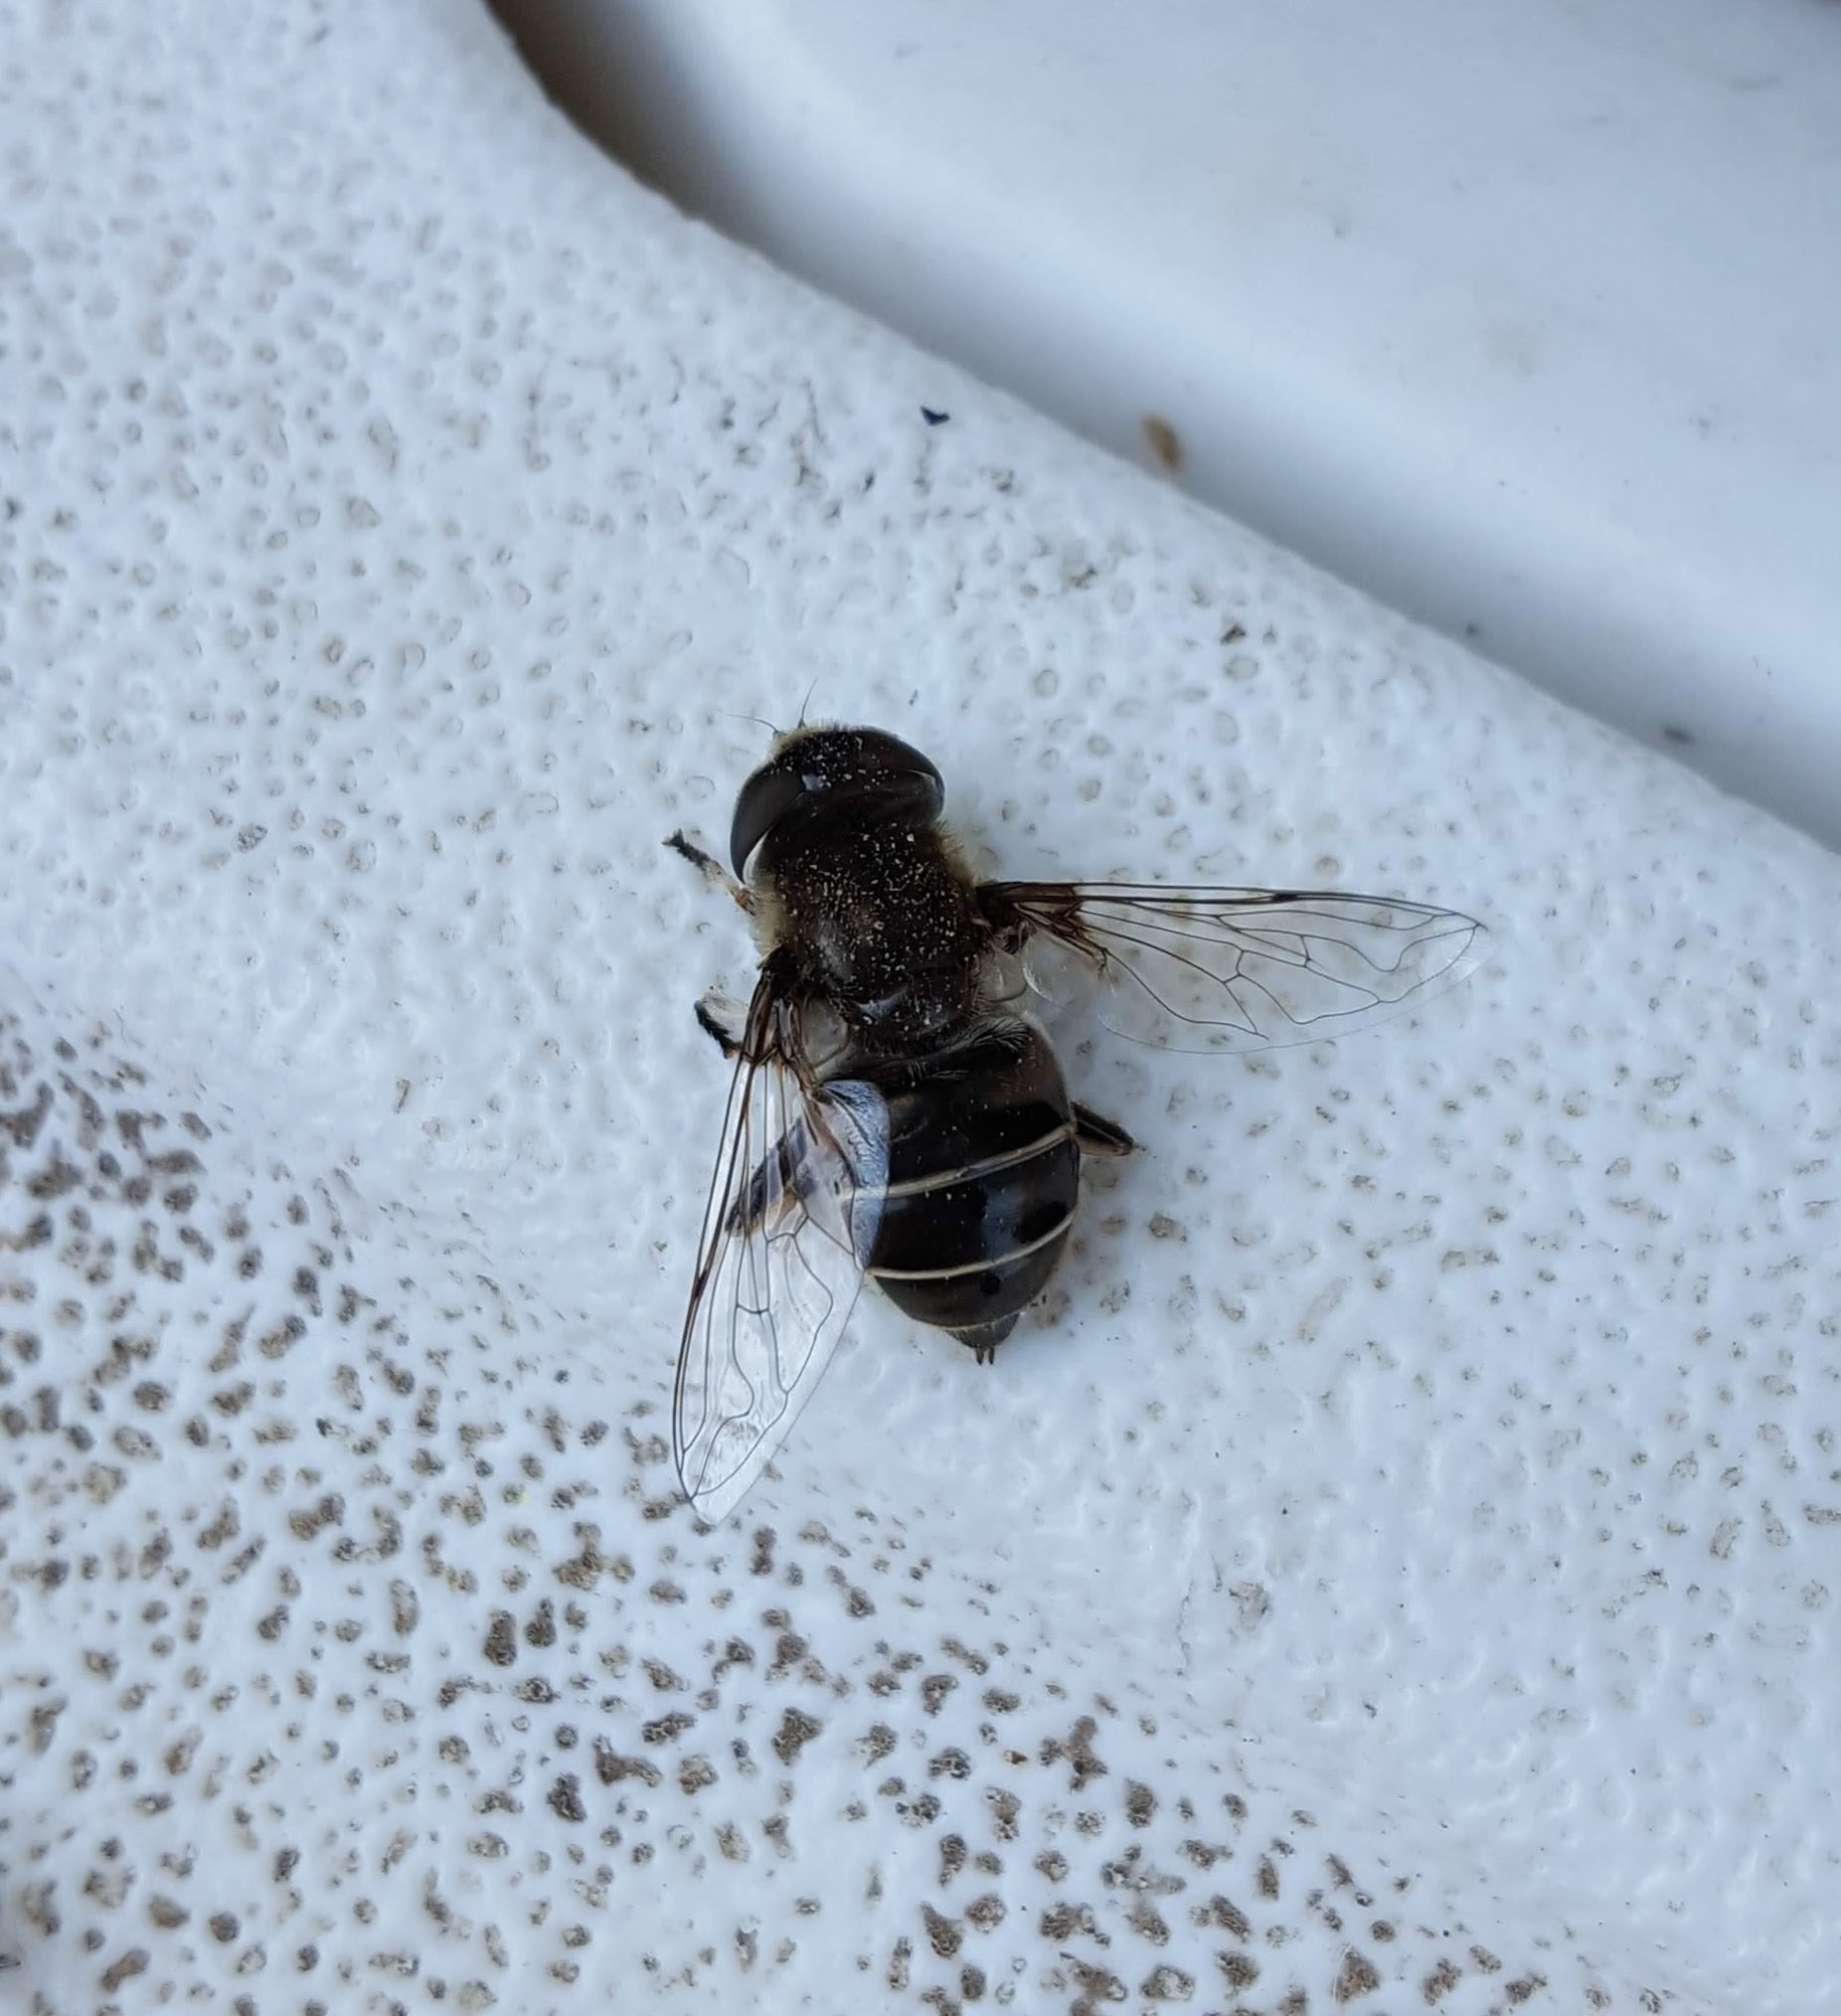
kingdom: Animalia
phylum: Arthropoda
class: Insecta
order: Diptera
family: Syrphidae
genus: Eristalis
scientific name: Eristalis dimidiata
